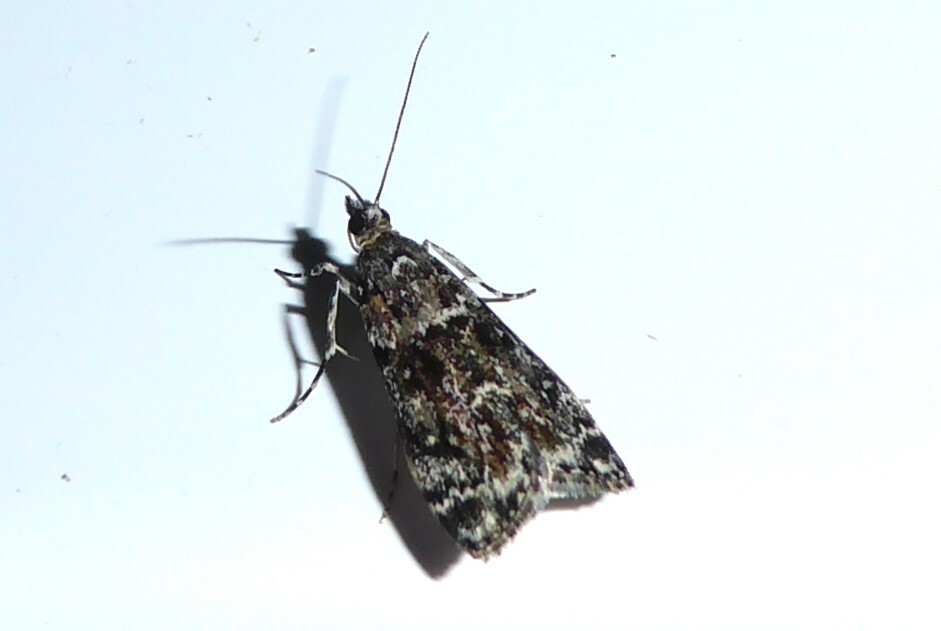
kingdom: Animalia
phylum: Arthropoda
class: Insecta
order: Lepidoptera
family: Crambidae
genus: Eudonia
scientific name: Eudonia philerga
